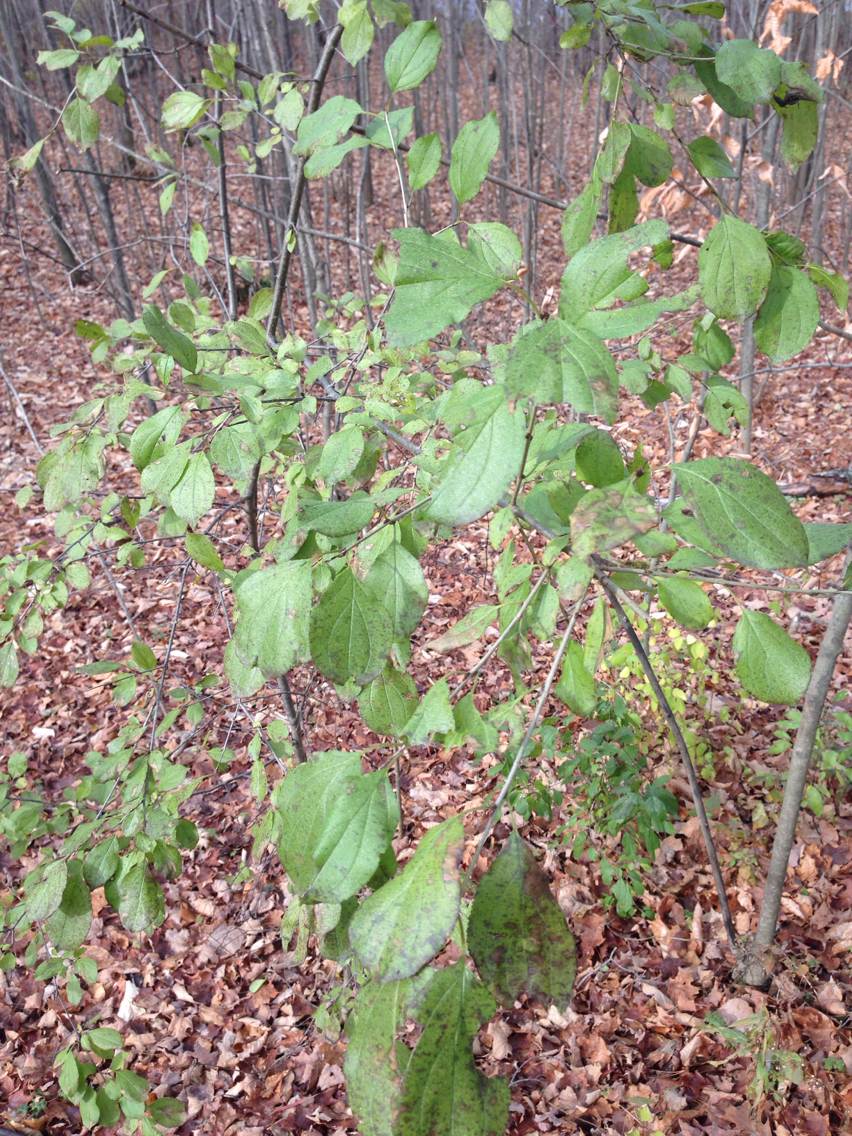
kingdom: Plantae
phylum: Tracheophyta
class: Magnoliopsida
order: Rosales
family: Rhamnaceae
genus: Rhamnus
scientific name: Rhamnus cathartica
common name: Common buckthorn
